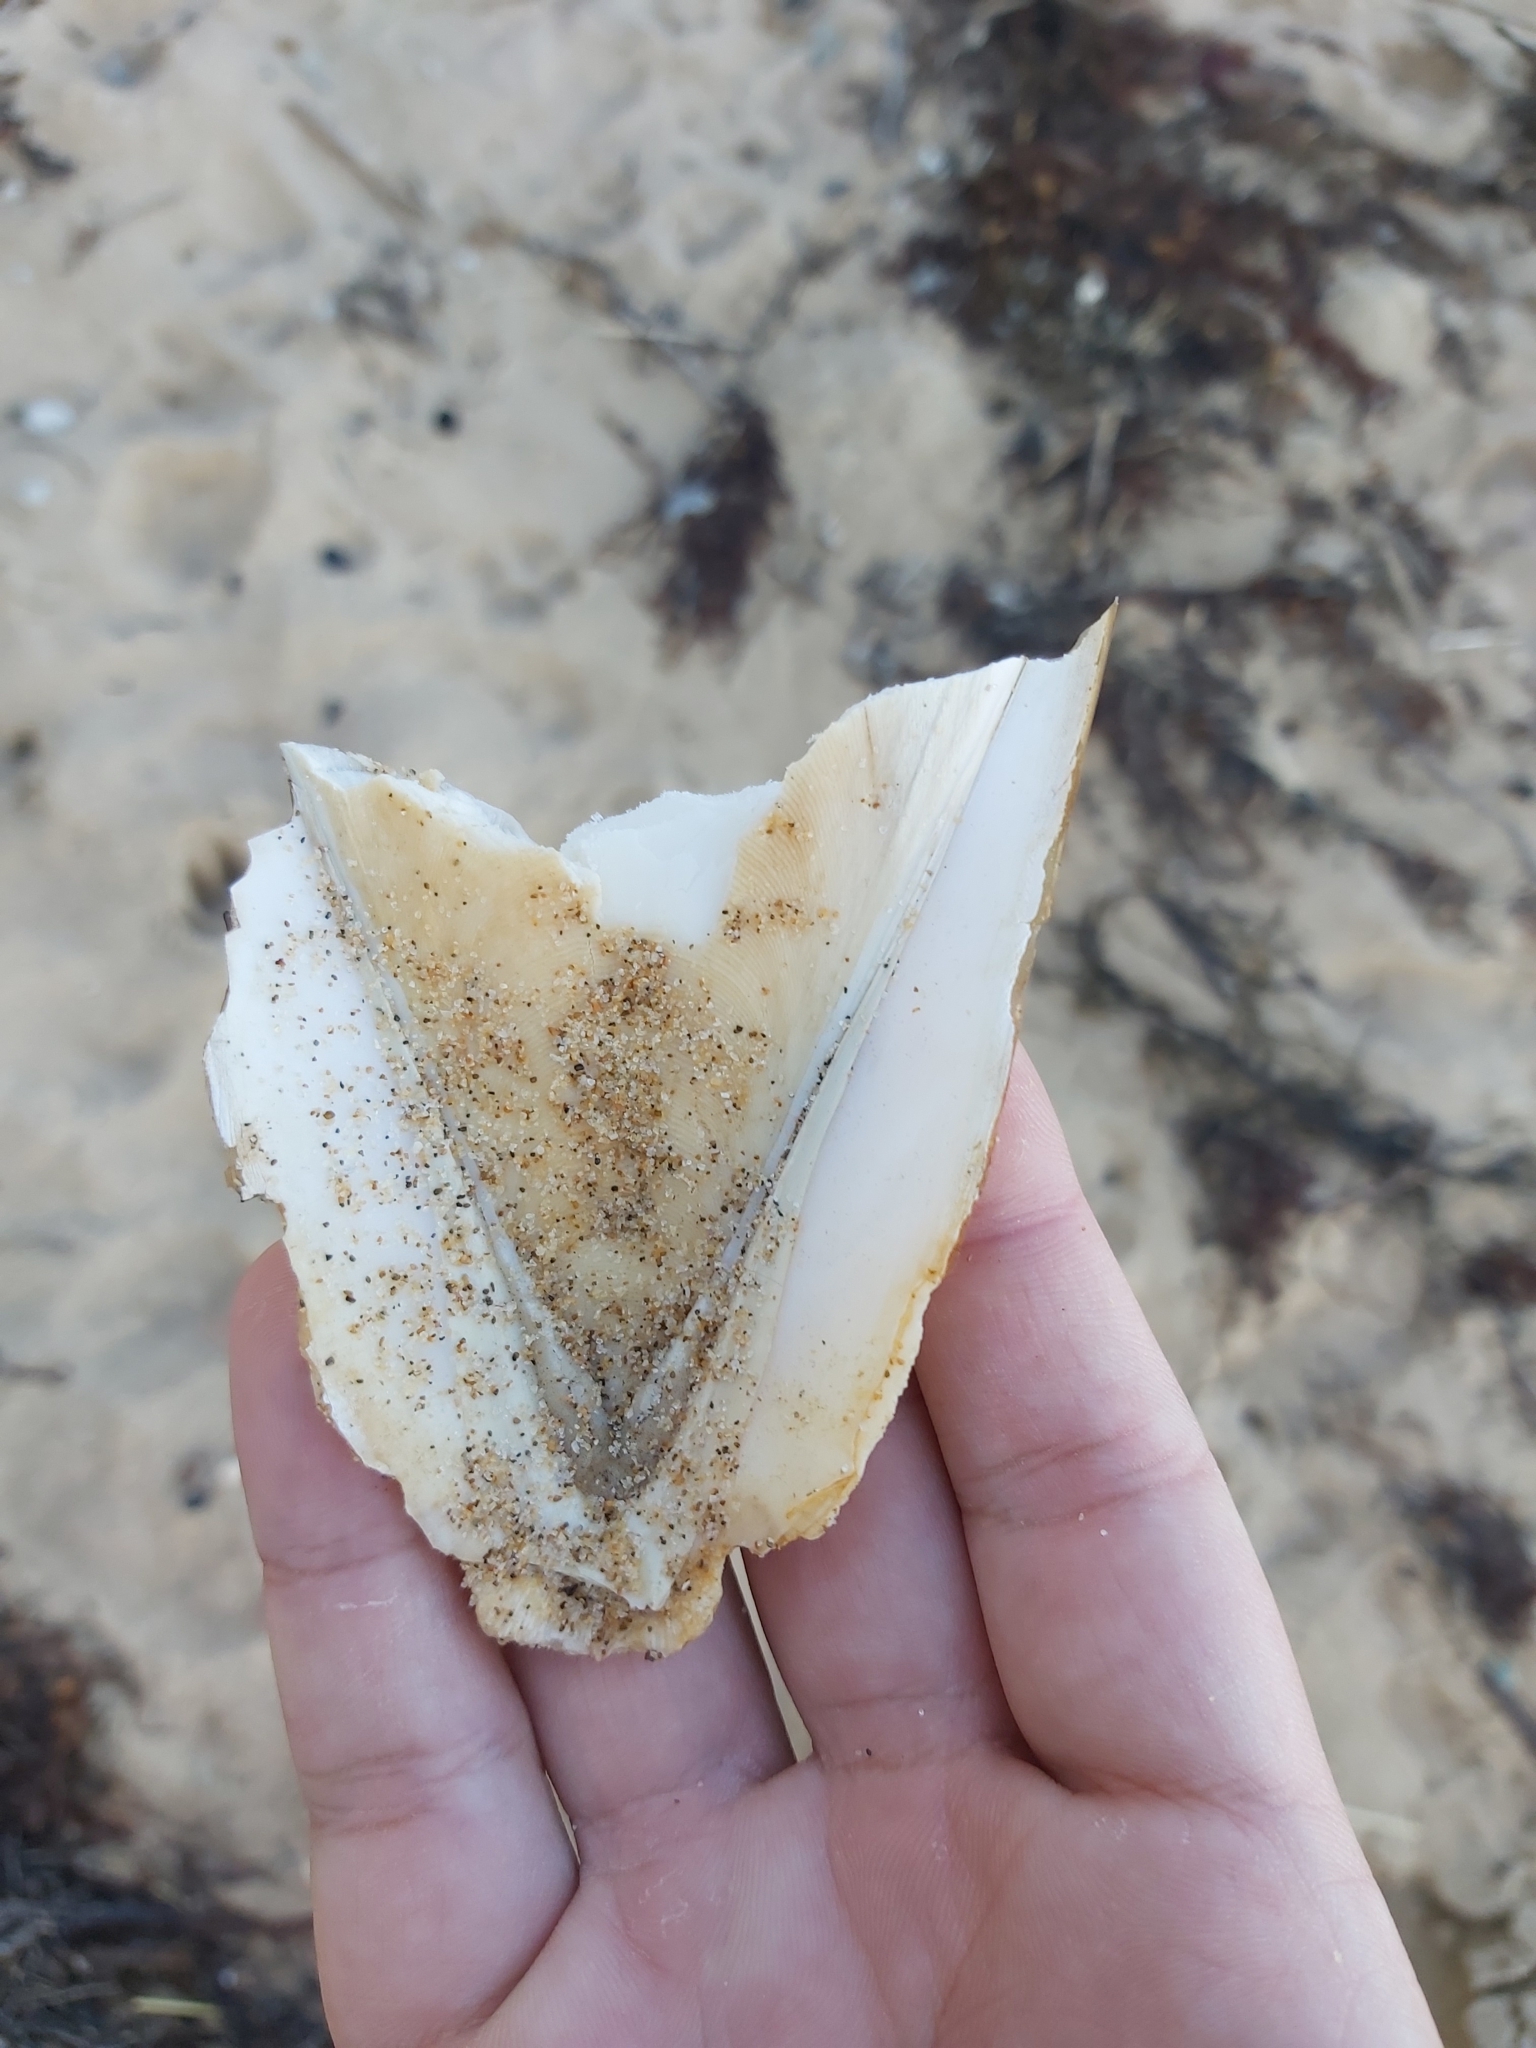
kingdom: Animalia
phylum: Mollusca
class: Cephalopoda
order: Sepiida
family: Sepiidae
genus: Ascarosepion
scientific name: Ascarosepion apama
